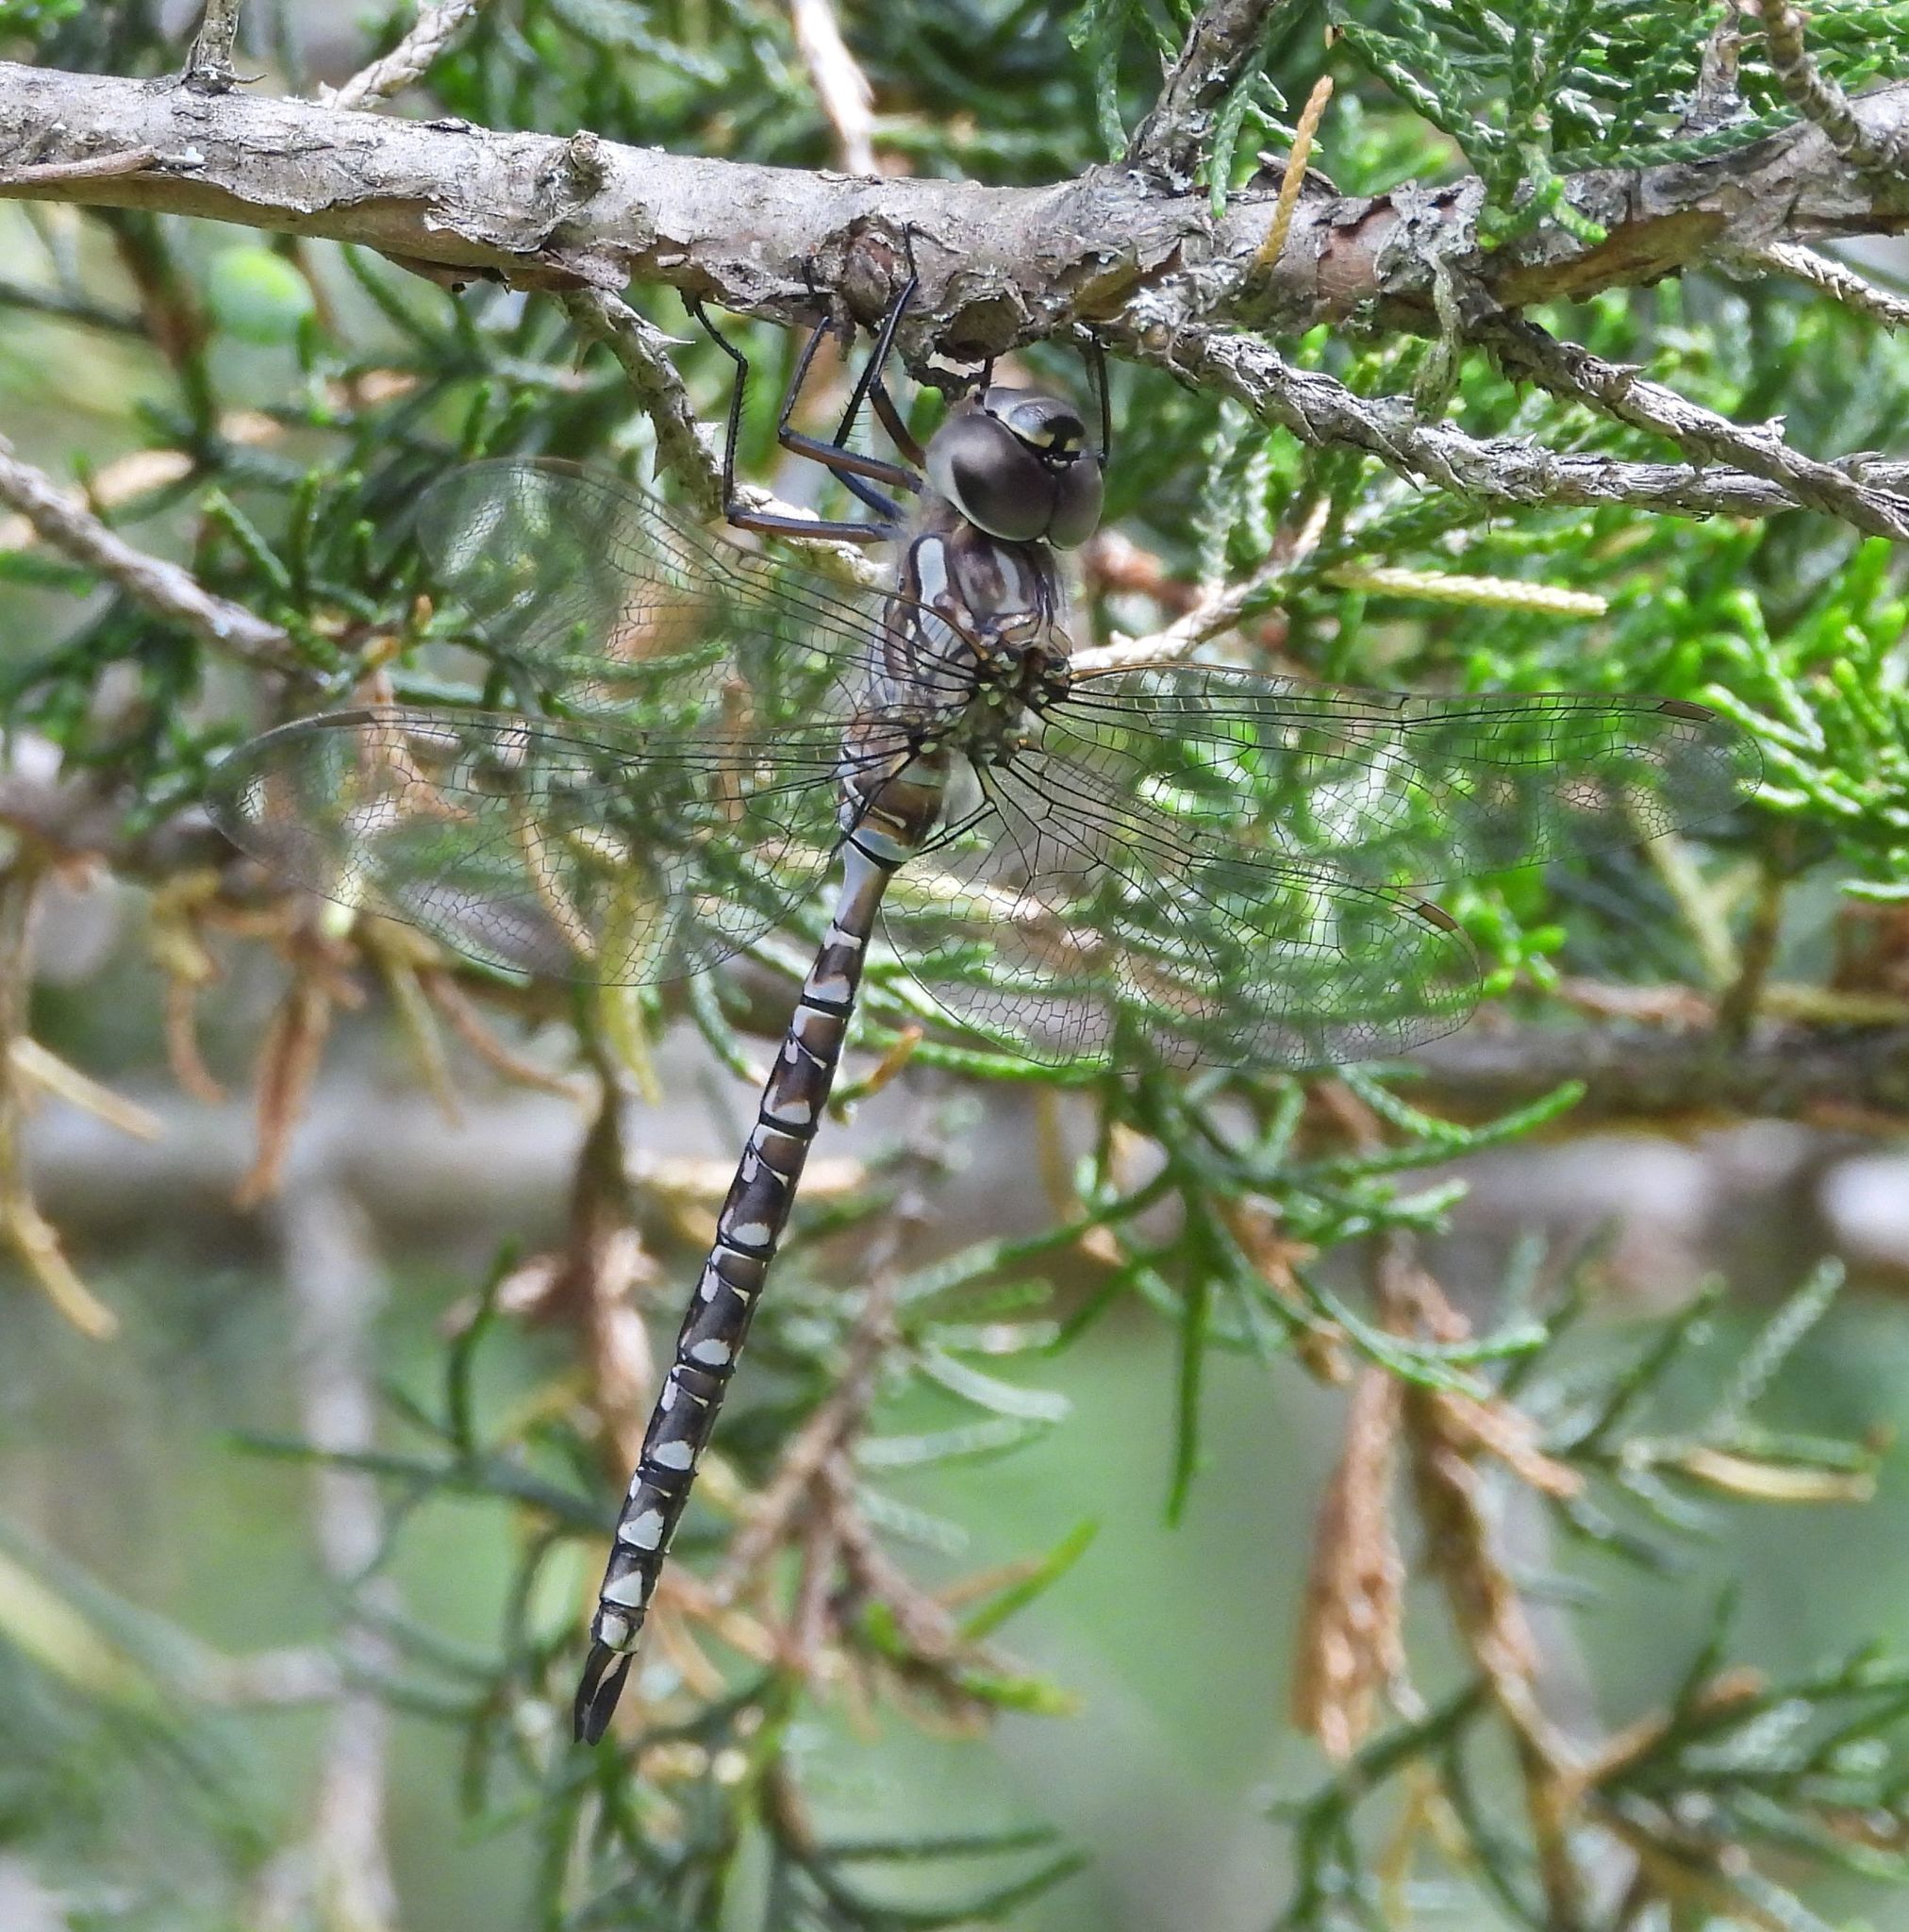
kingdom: Animalia
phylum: Arthropoda
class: Insecta
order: Odonata
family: Aeshnidae
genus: Aeshna
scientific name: Aeshna canadensis
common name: Canada darner
